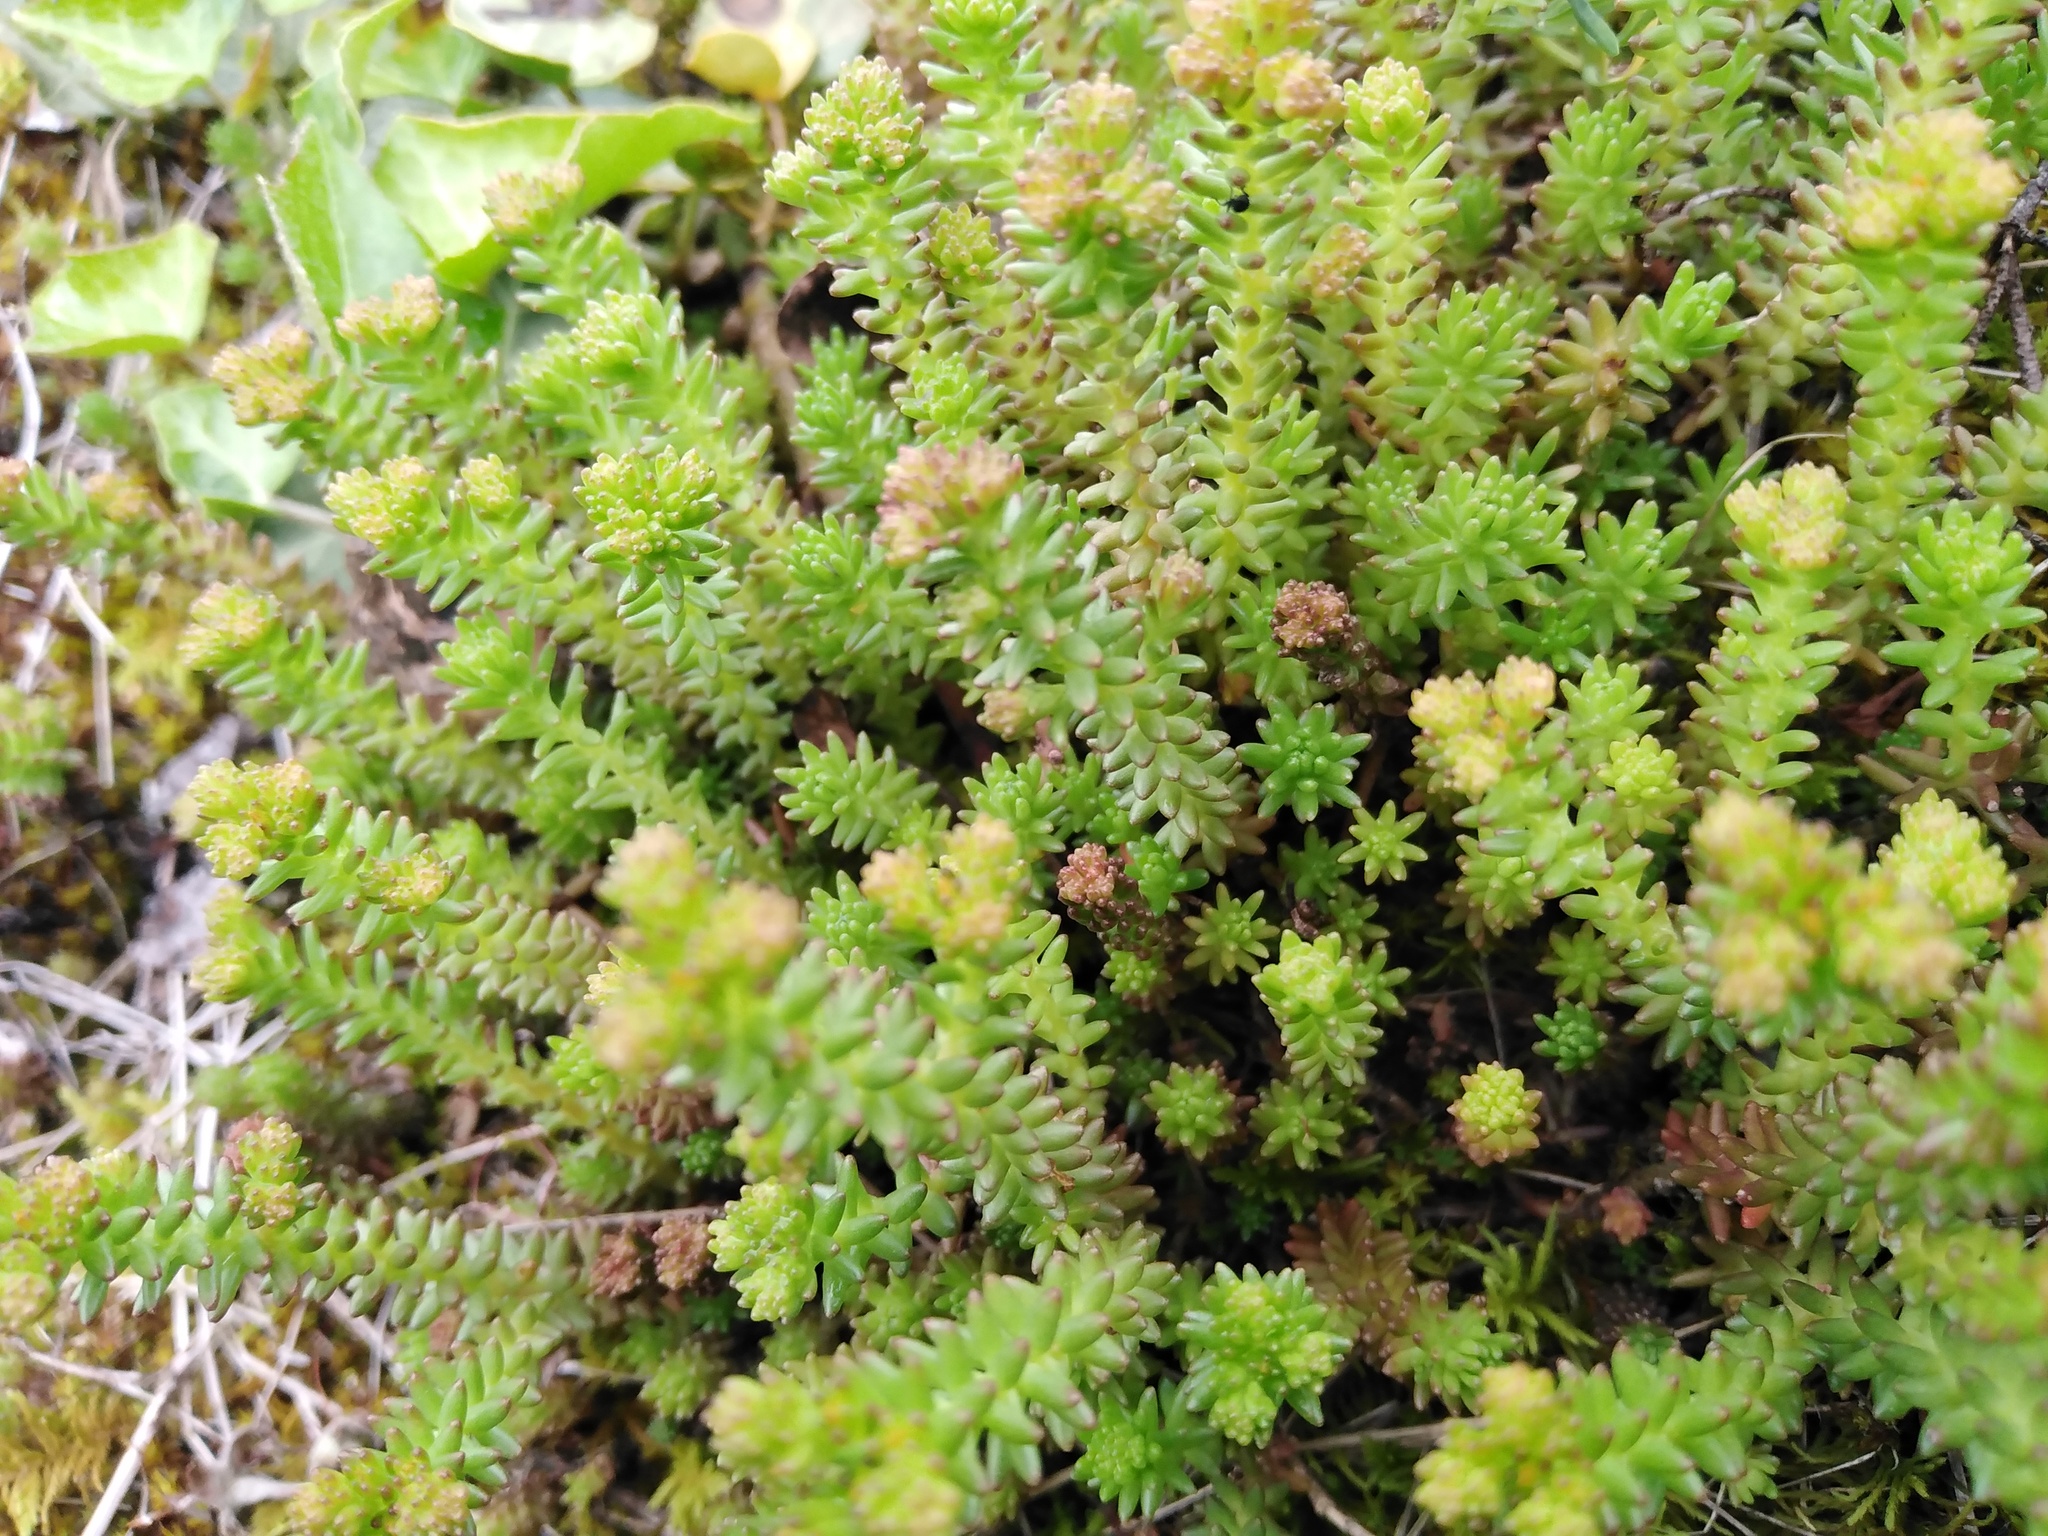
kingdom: Plantae
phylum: Tracheophyta
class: Magnoliopsida
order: Saxifragales
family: Crassulaceae
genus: Sedum
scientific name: Sedum sexangulare
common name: Tasteless stonecrop
